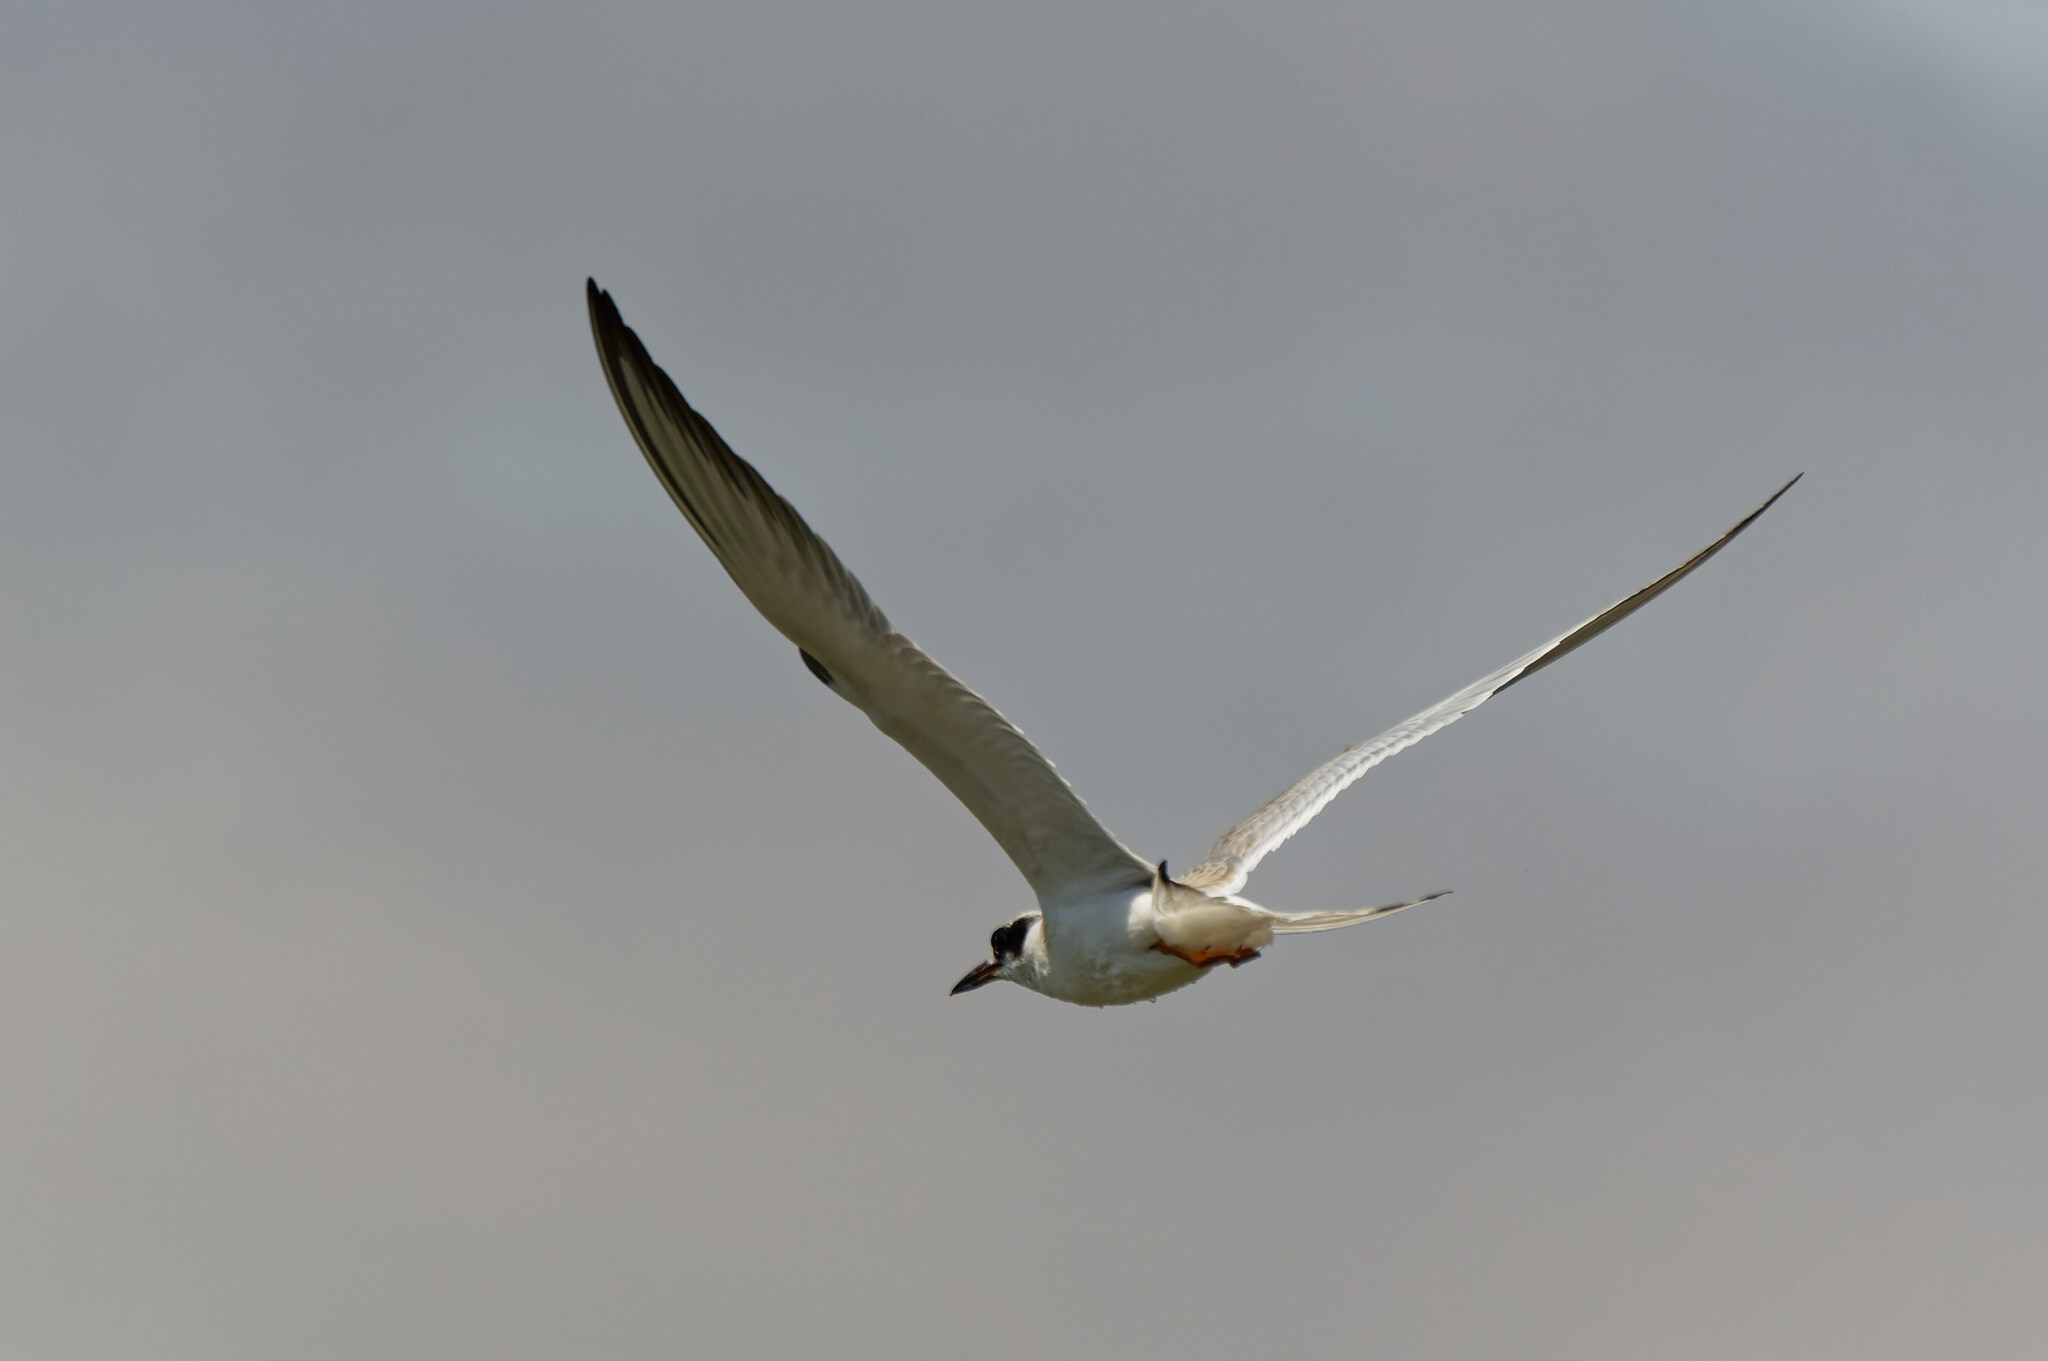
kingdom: Animalia
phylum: Chordata
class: Aves
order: Charadriiformes
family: Laridae
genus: Sterna
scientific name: Sterna forsteri
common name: Forster's tern
